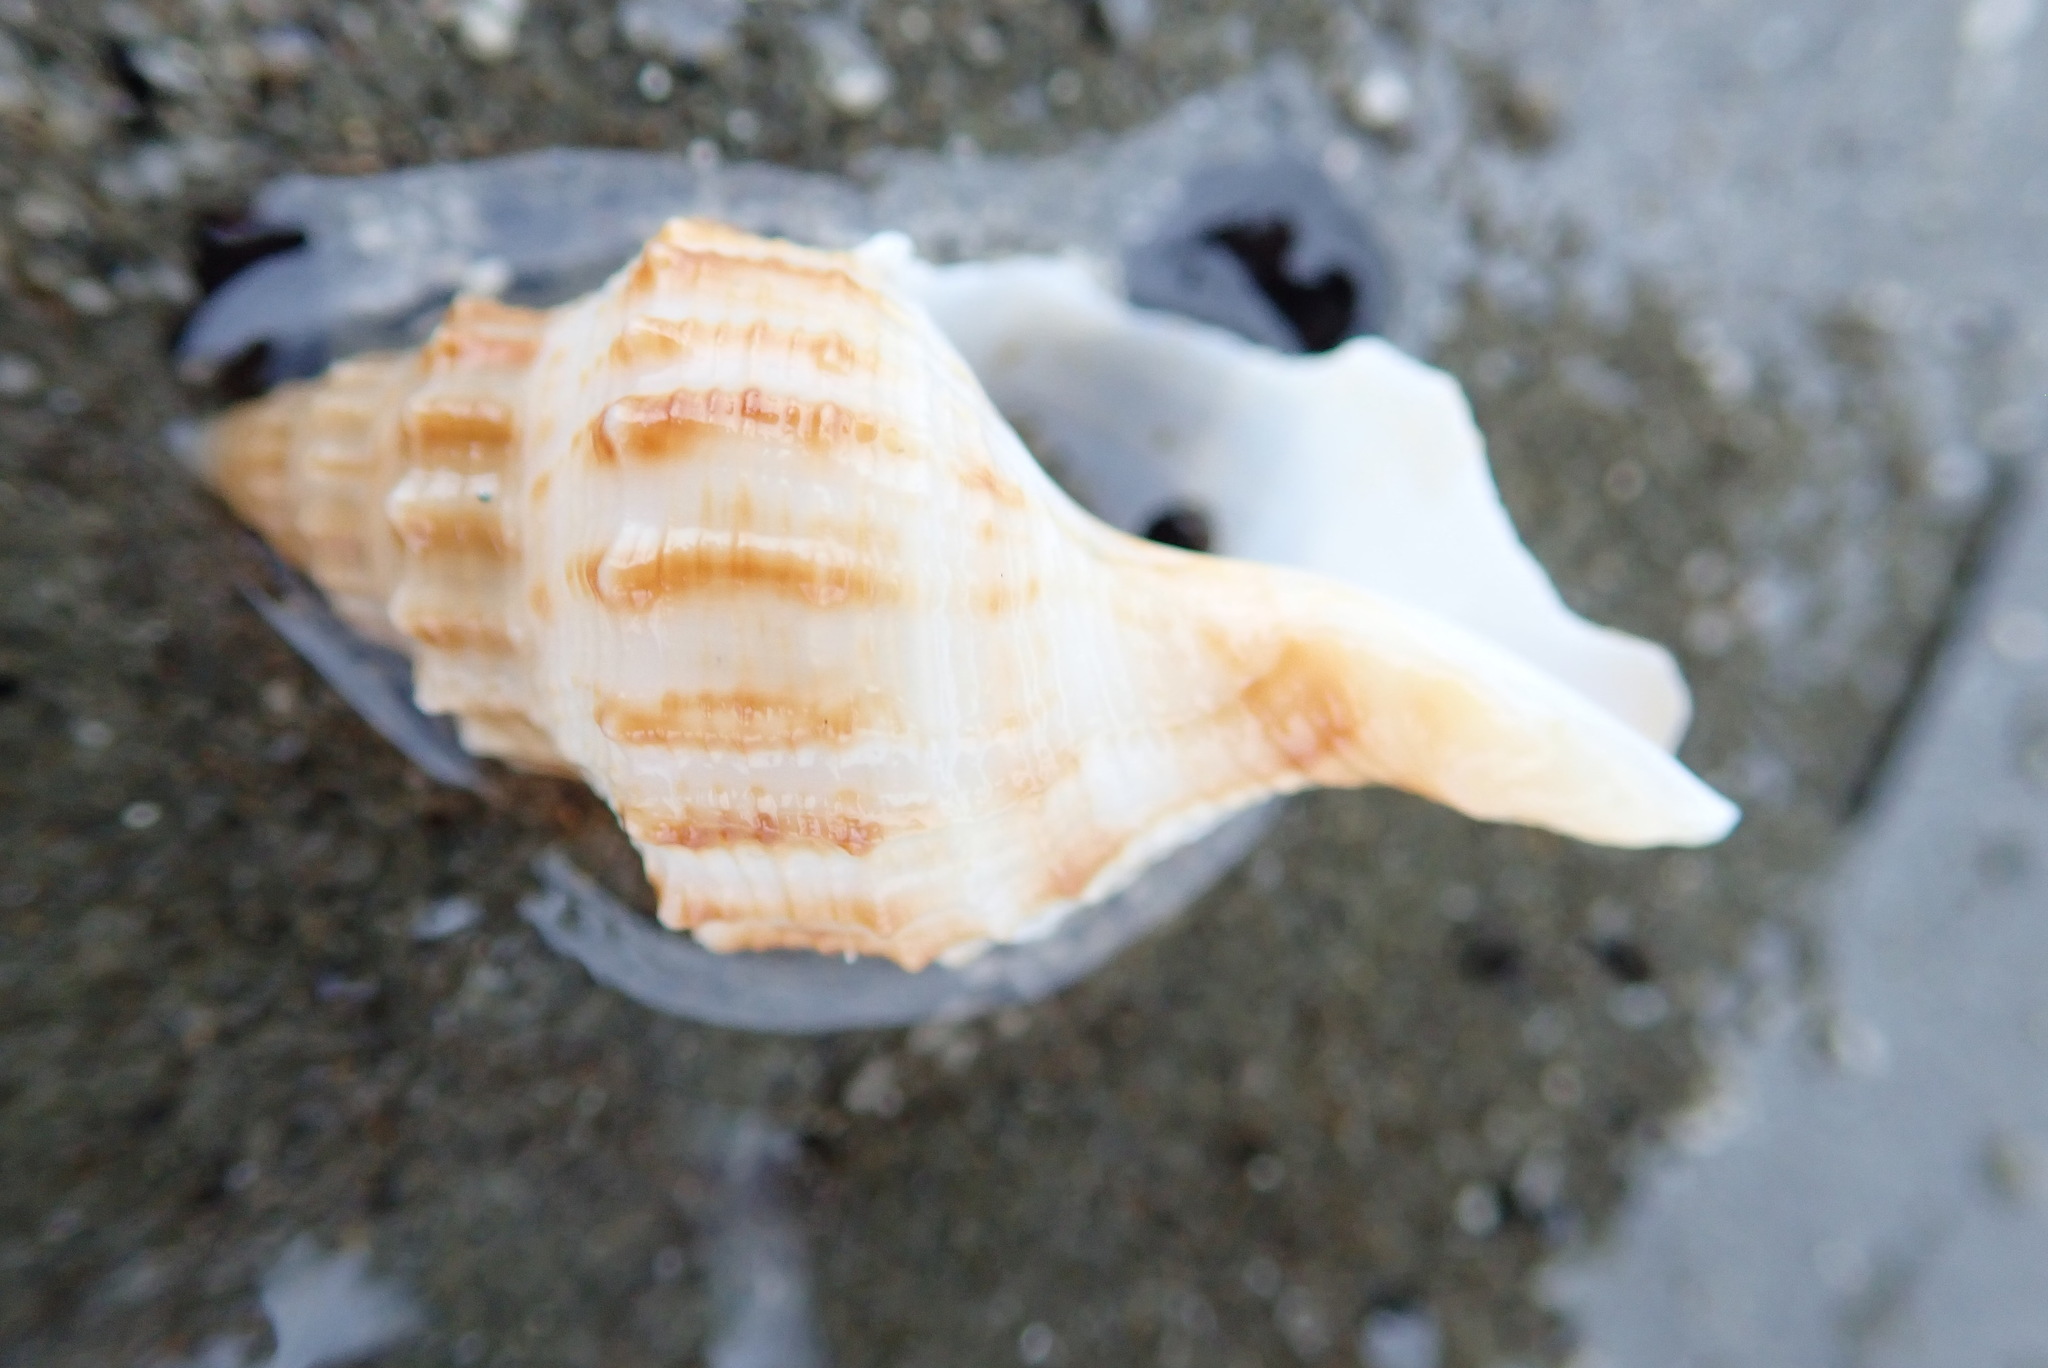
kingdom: Animalia
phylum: Mollusca
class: Gastropoda
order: Neogastropoda
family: Prosiphonidae
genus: Austrofusus
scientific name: Austrofusus glans
